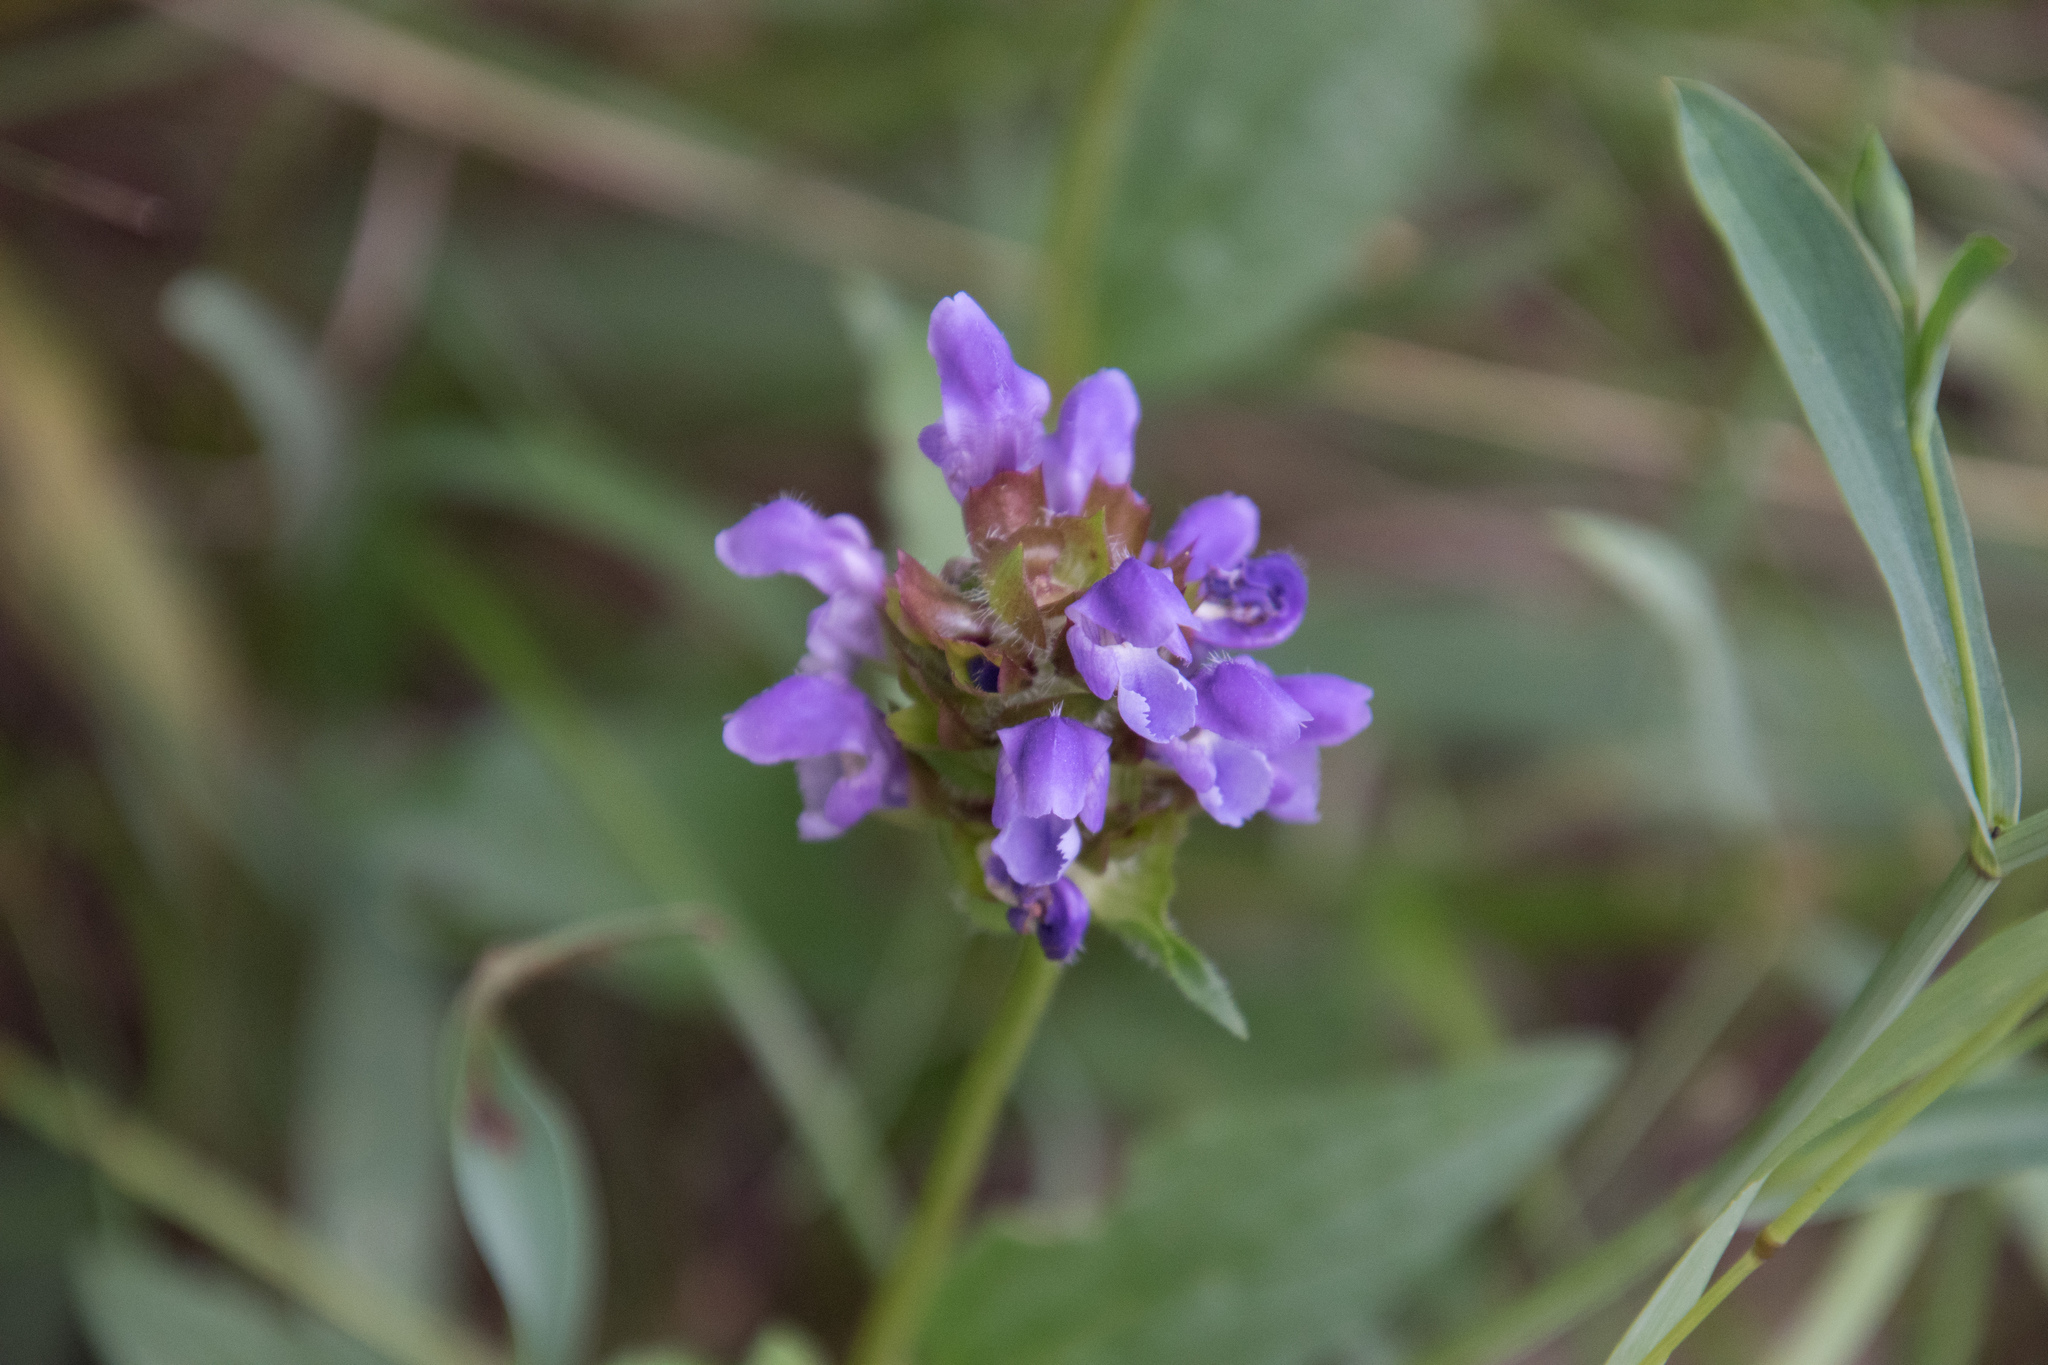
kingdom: Plantae
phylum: Tracheophyta
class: Magnoliopsida
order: Lamiales
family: Lamiaceae
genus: Prunella
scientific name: Prunella vulgaris
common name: Heal-all
